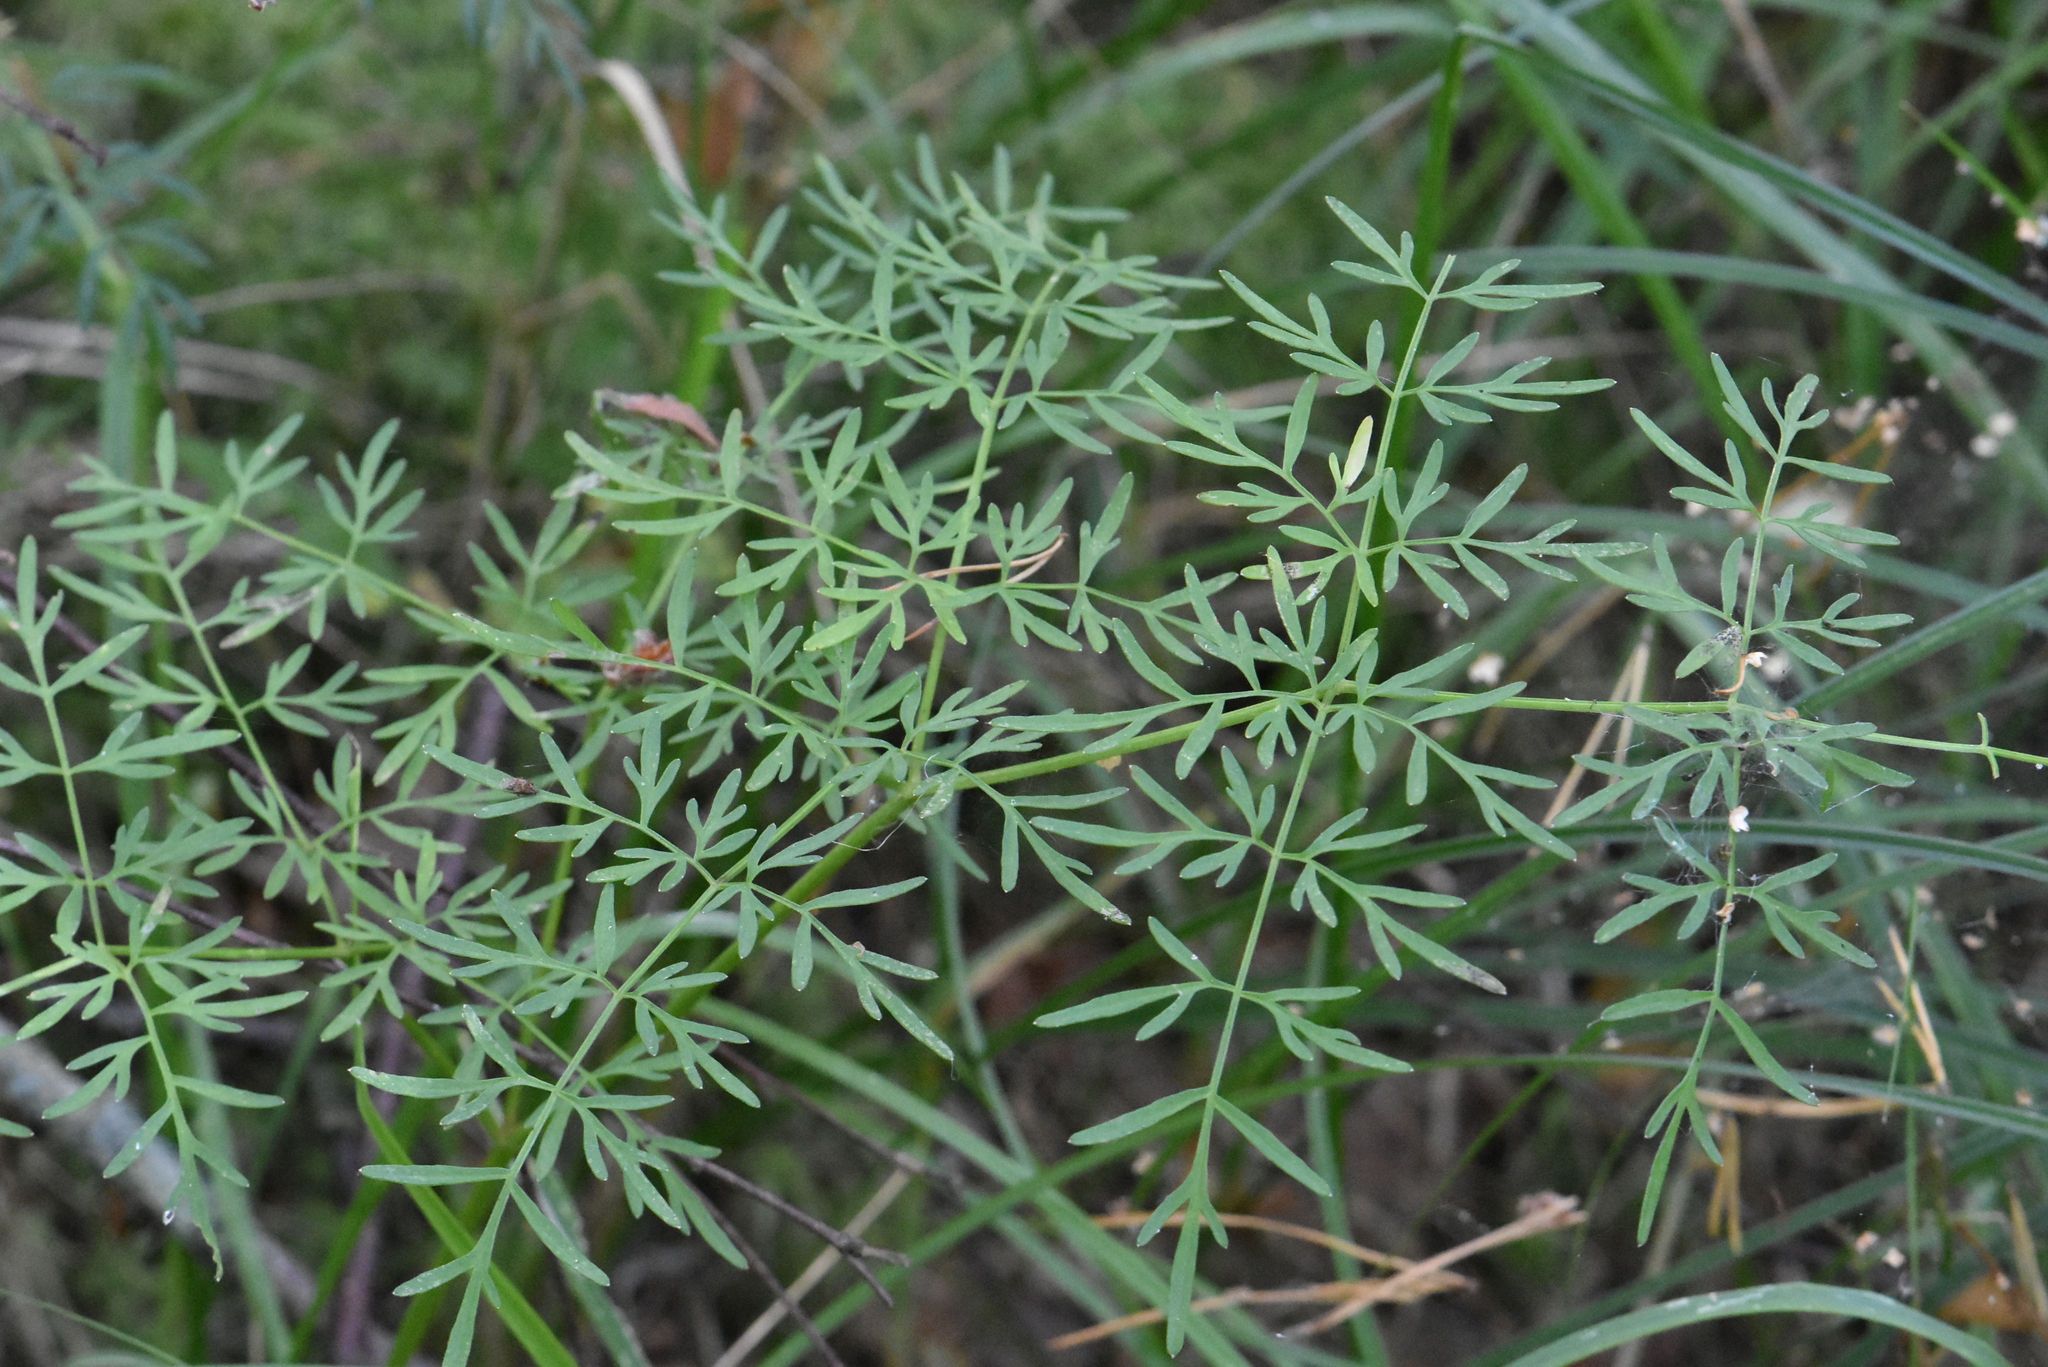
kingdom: Plantae
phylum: Tracheophyta
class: Magnoliopsida
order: Apiales
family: Apiaceae
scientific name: Apiaceae
